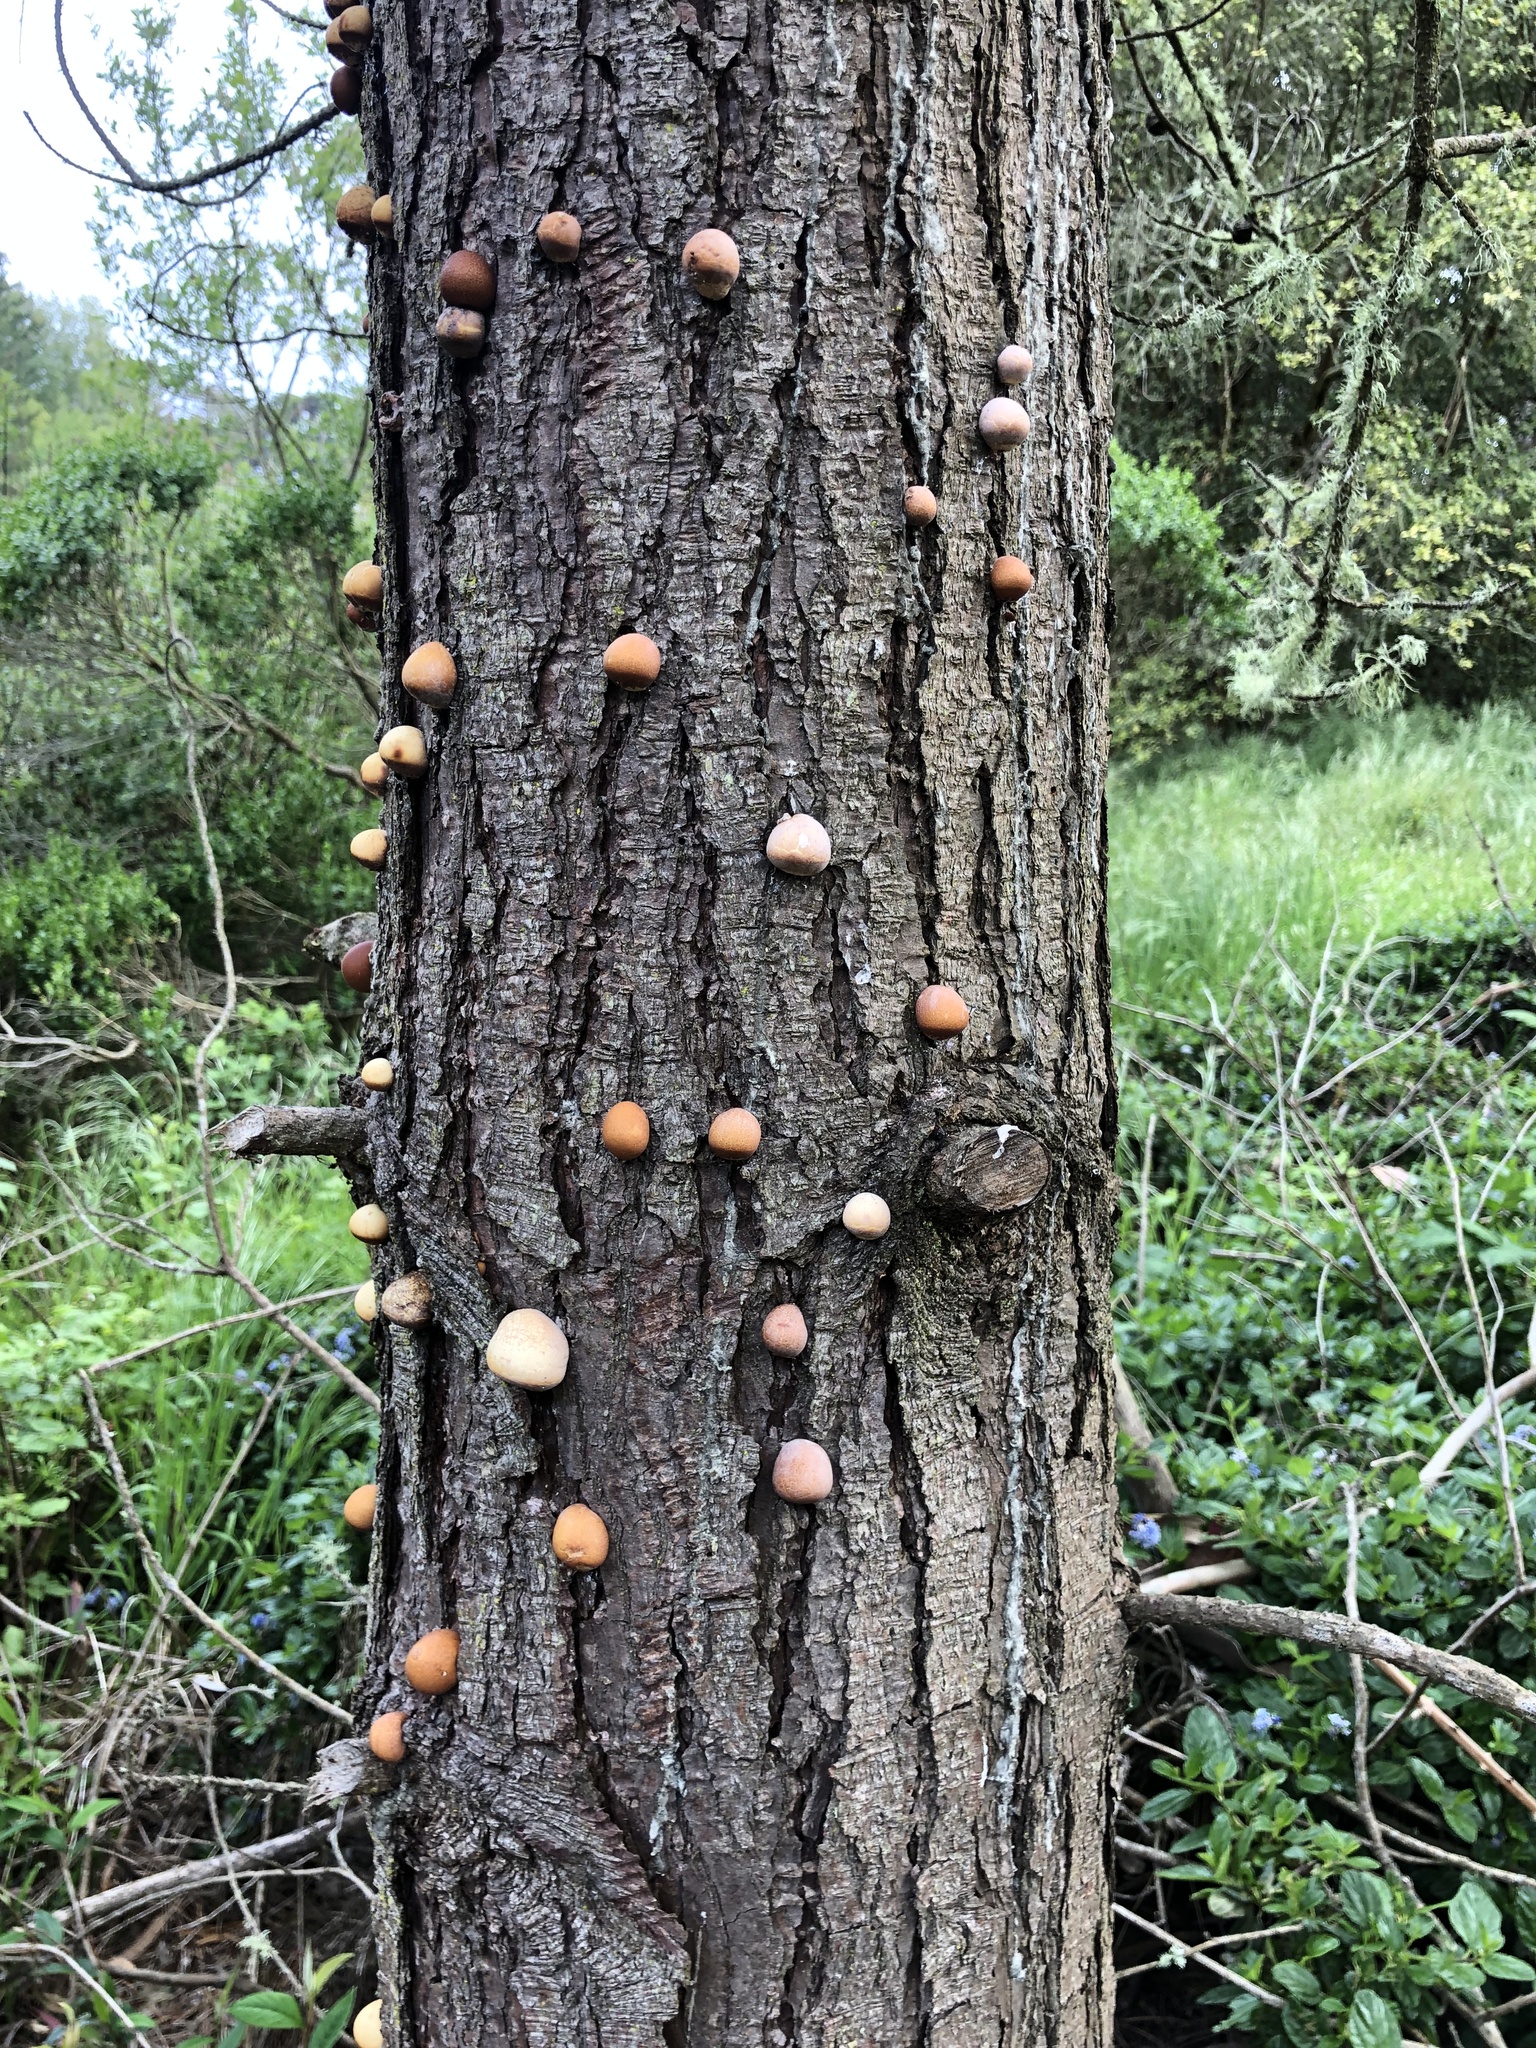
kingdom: Fungi
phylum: Basidiomycota
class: Agaricomycetes
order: Polyporales
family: Polyporaceae
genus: Cryptoporus
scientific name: Cryptoporus volvatus
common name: Veiled polypore
